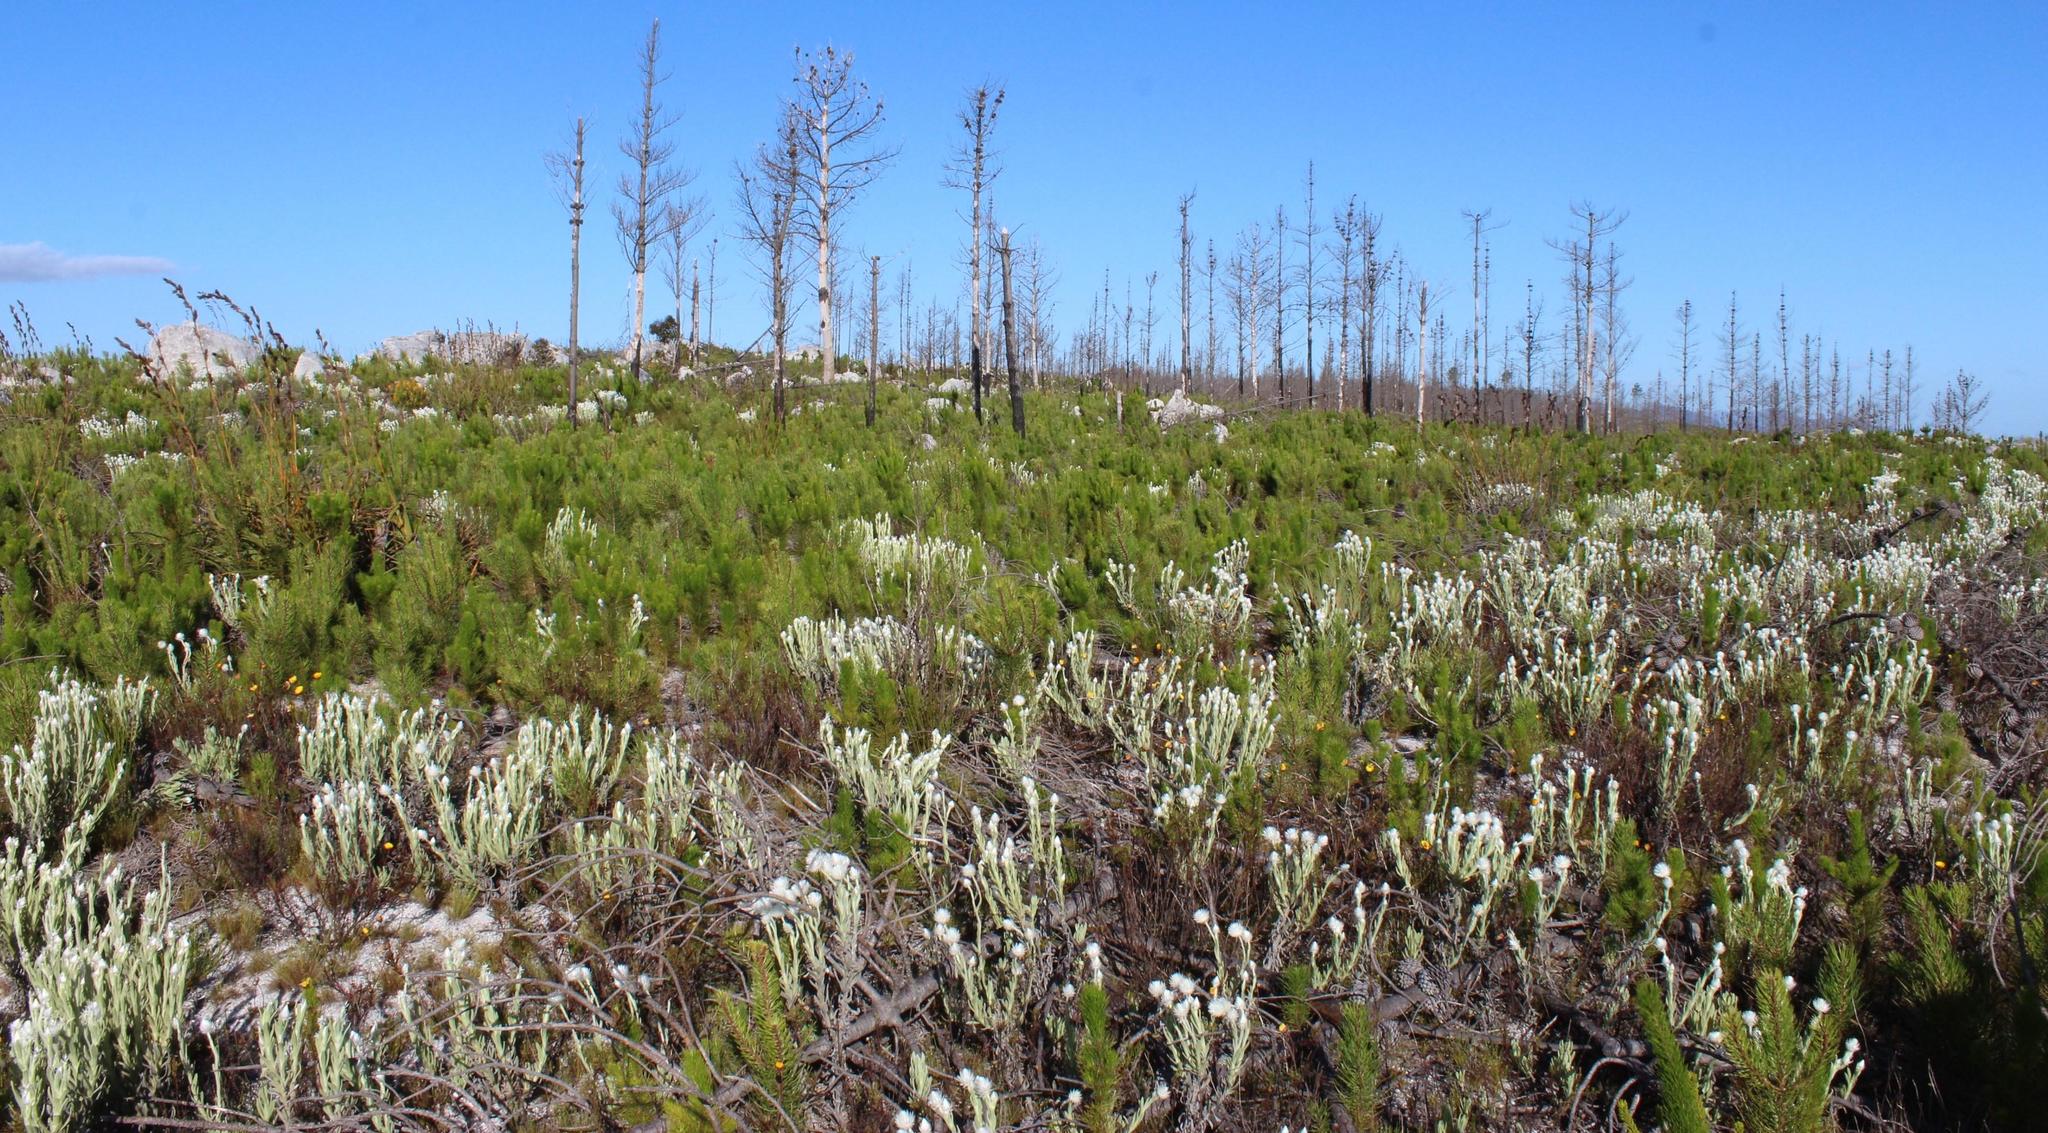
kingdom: Plantae
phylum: Tracheophyta
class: Pinopsida
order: Pinales
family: Pinaceae
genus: Pinus
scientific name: Pinus radiata
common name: Monterey pine
